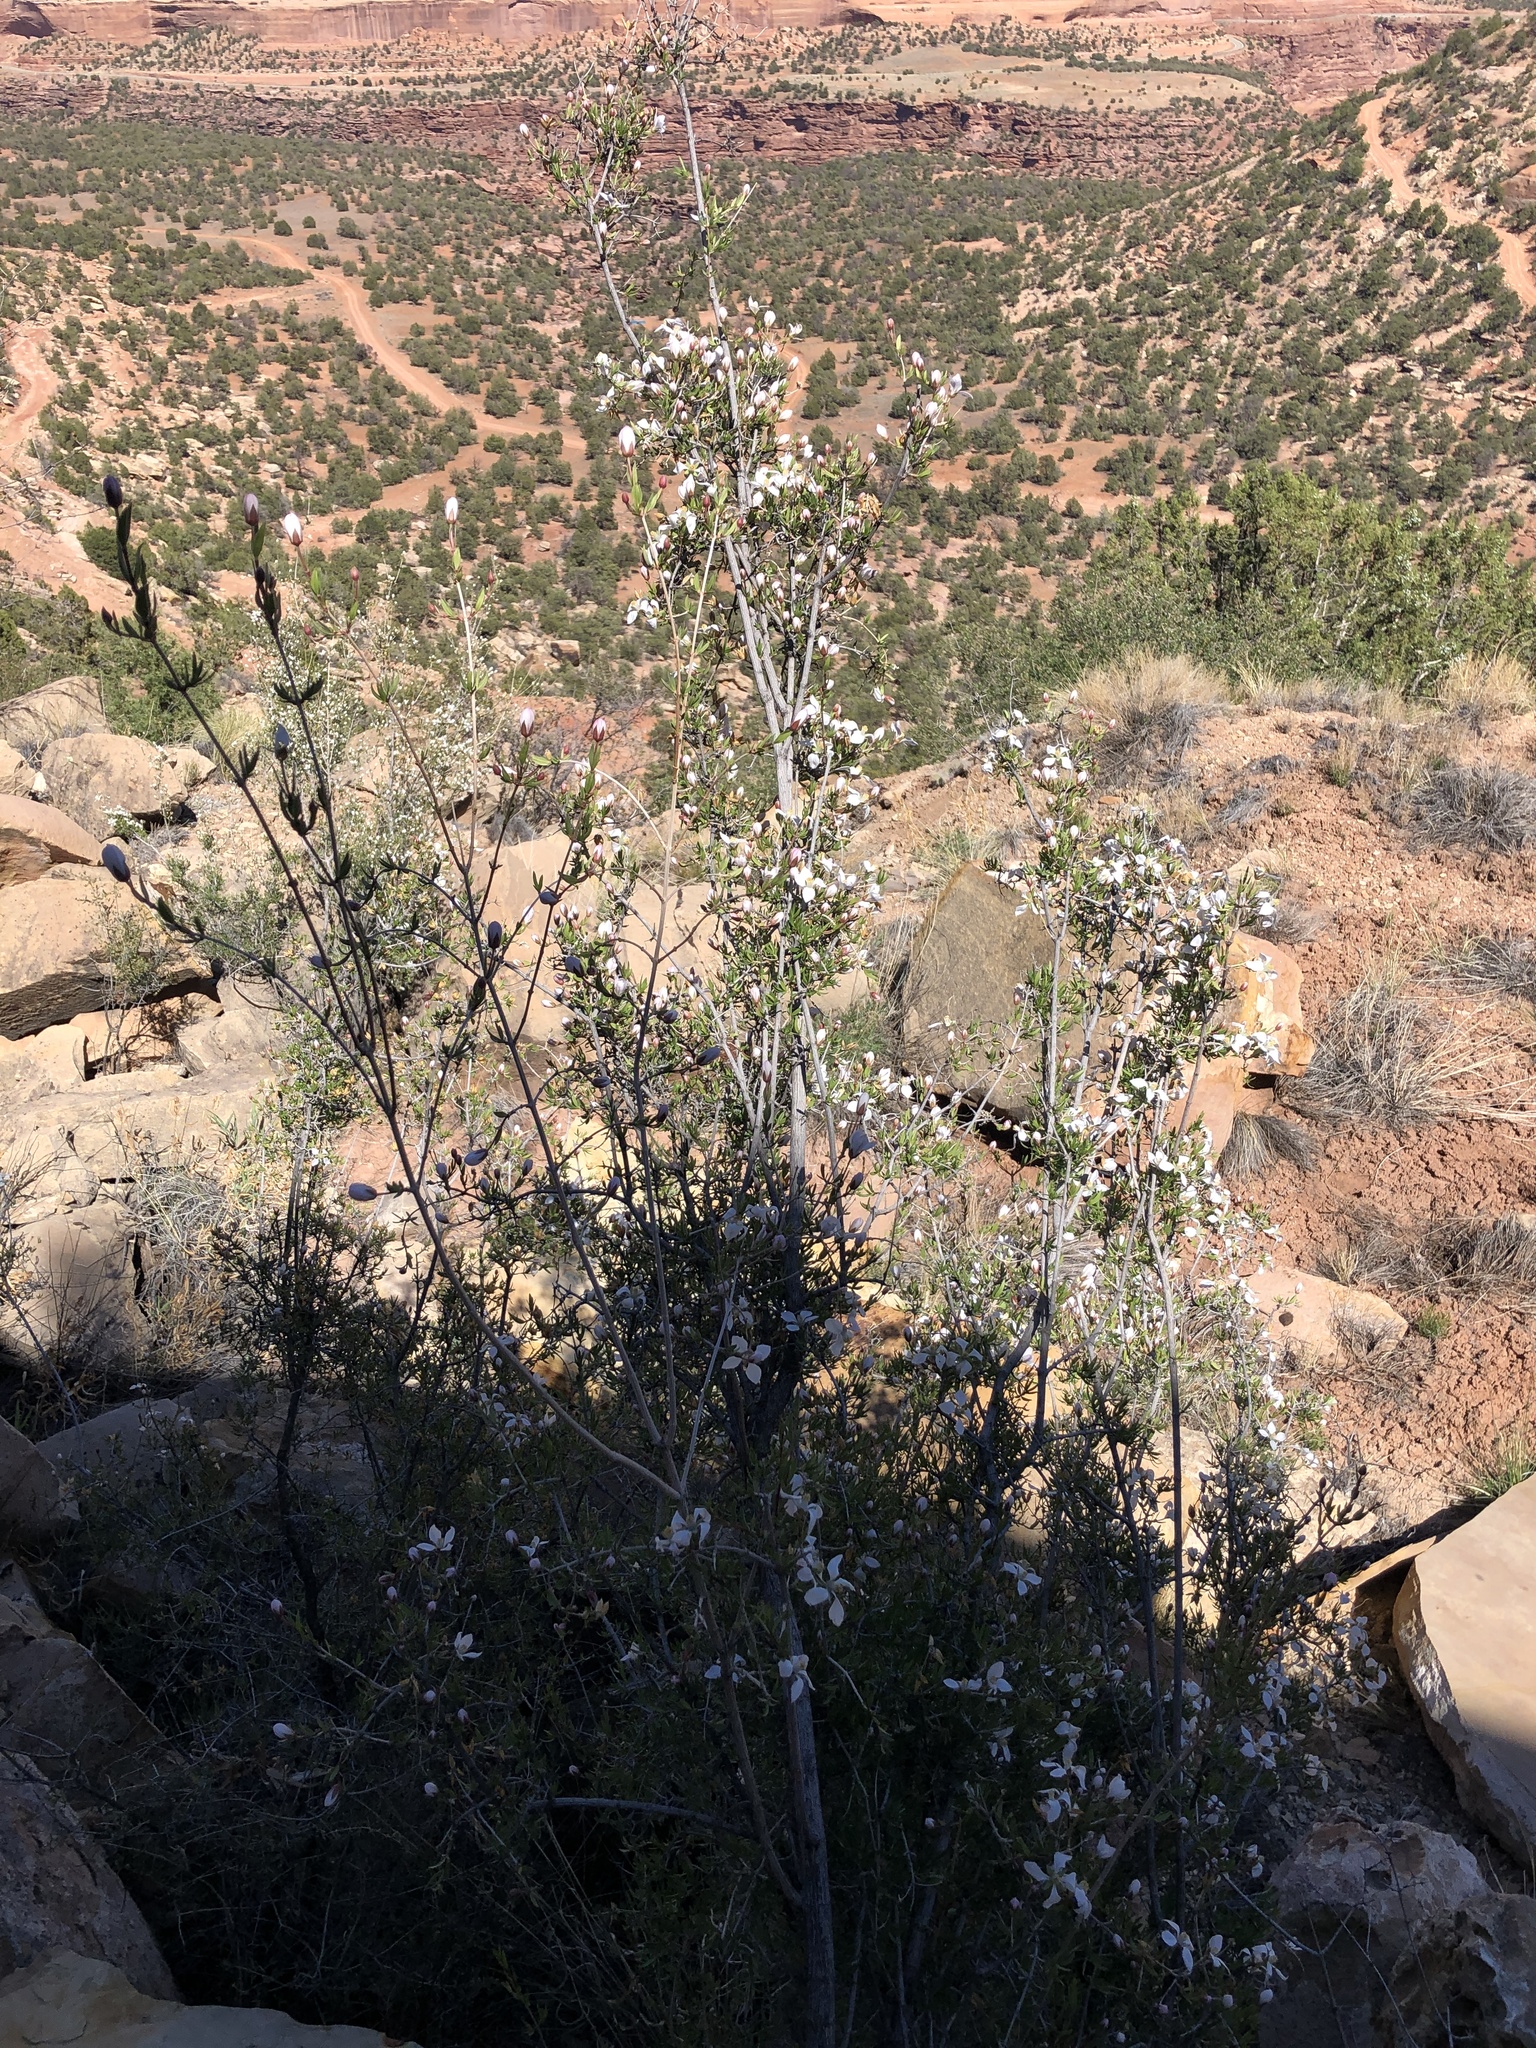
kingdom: Plantae
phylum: Tracheophyta
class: Magnoliopsida
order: Cornales
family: Hydrangeaceae
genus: Fendlera
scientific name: Fendlera rupicola
